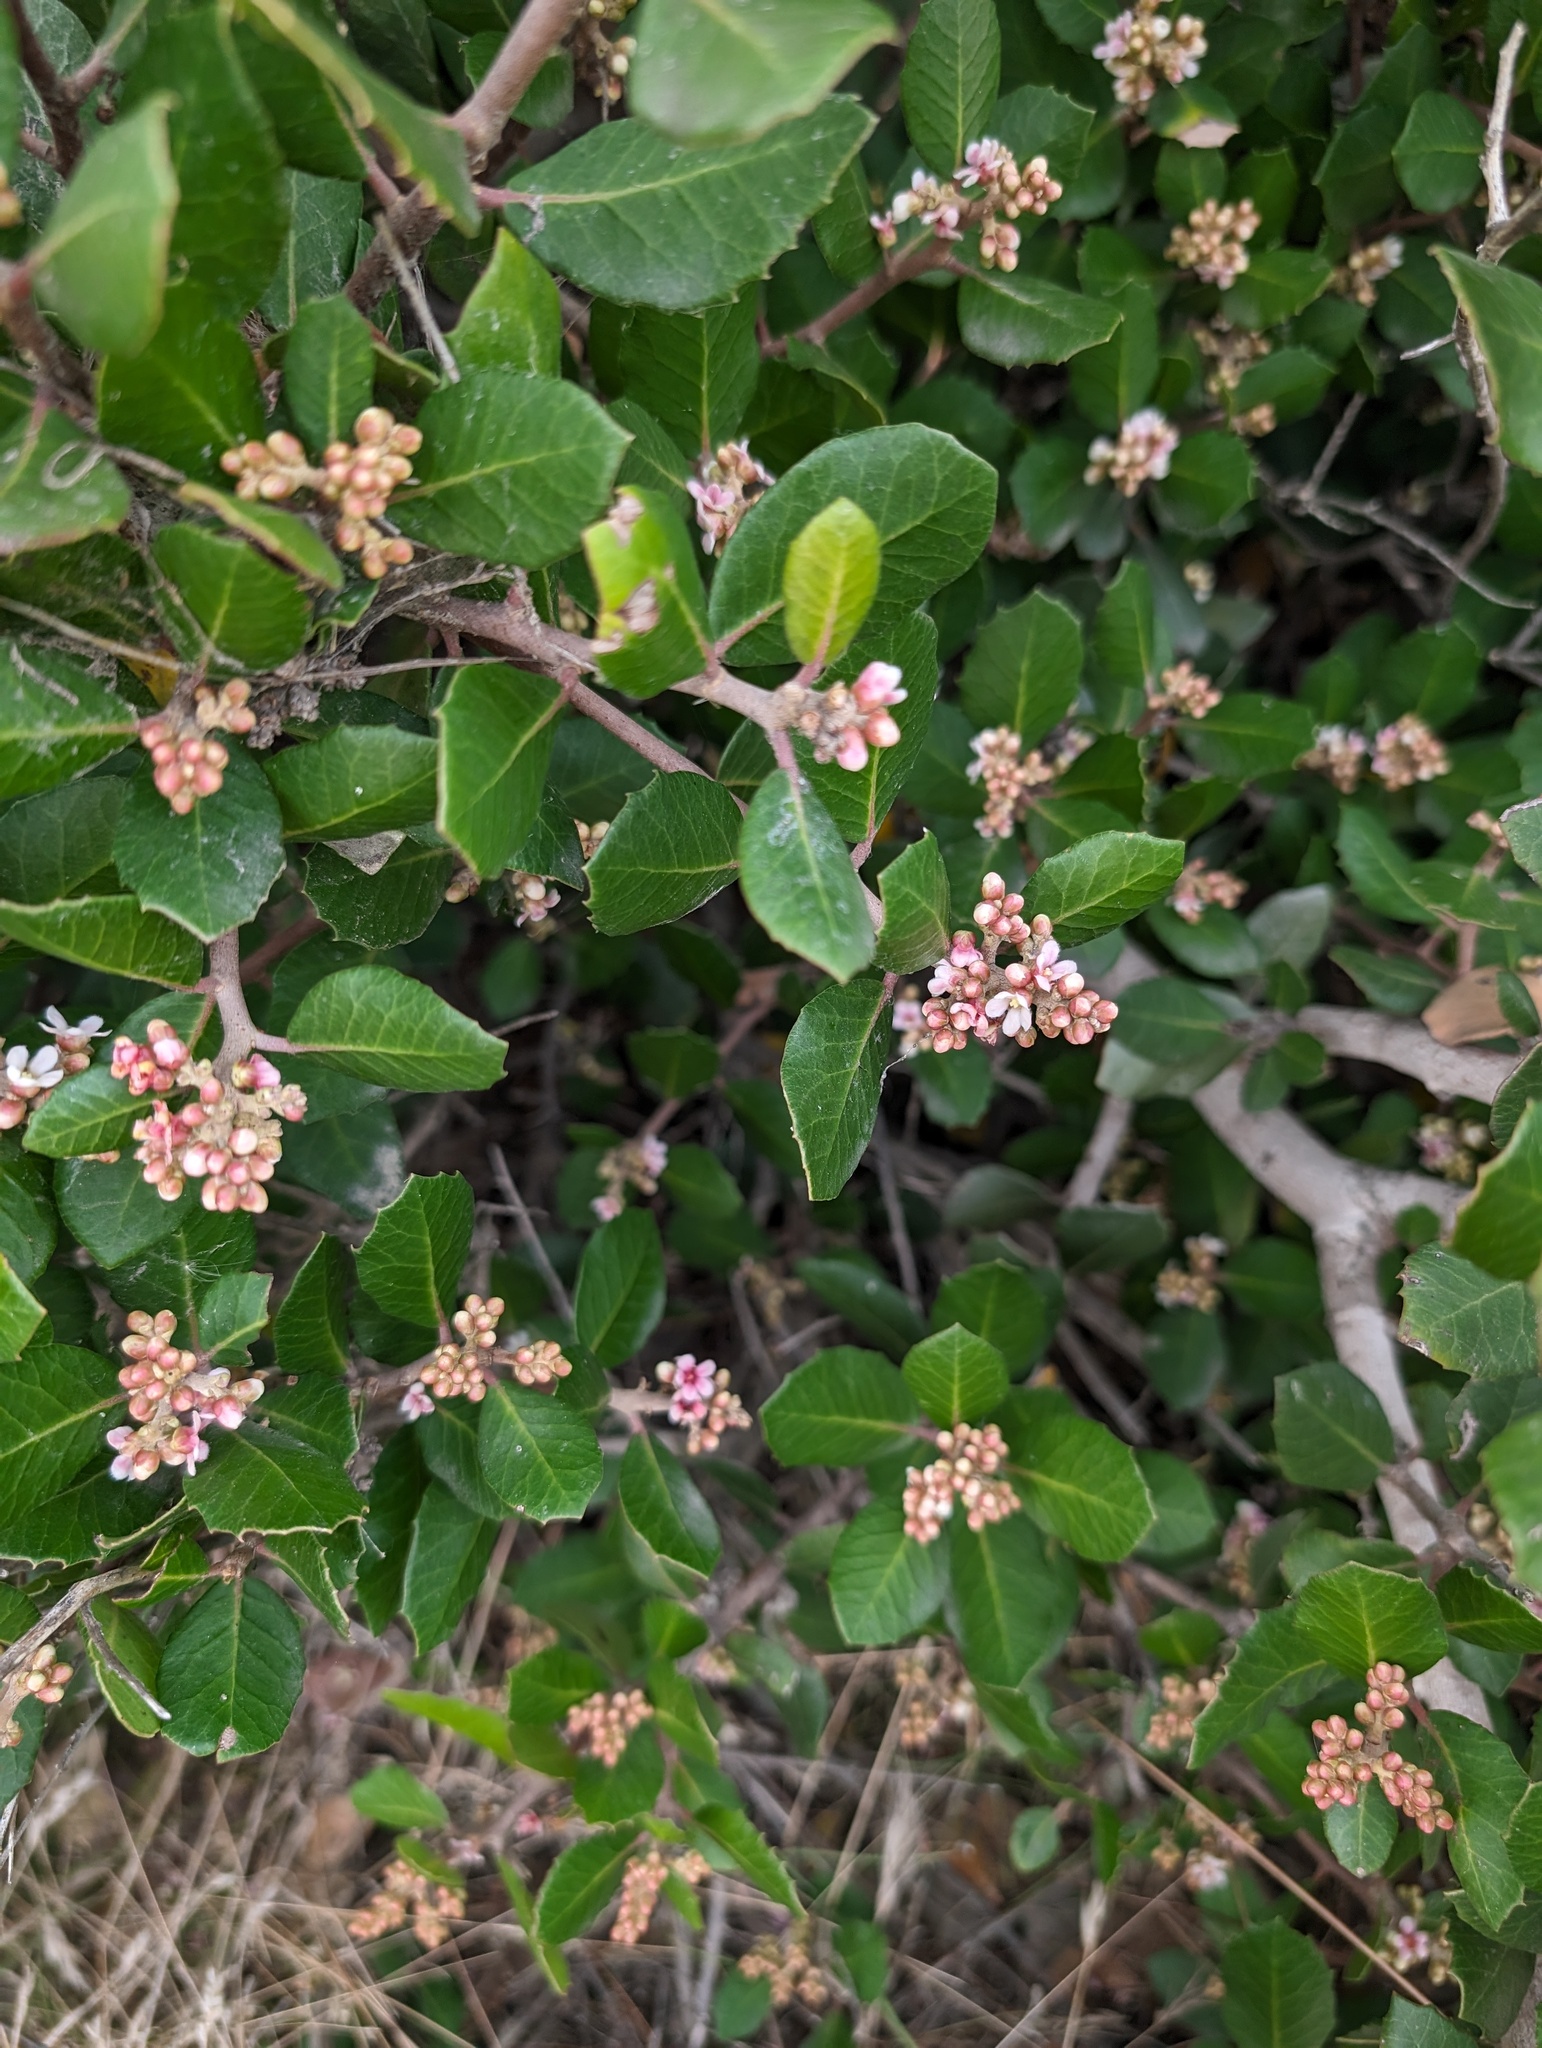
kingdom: Plantae
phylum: Tracheophyta
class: Magnoliopsida
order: Sapindales
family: Anacardiaceae
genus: Rhus
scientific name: Rhus integrifolia
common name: Lemonade sumac
